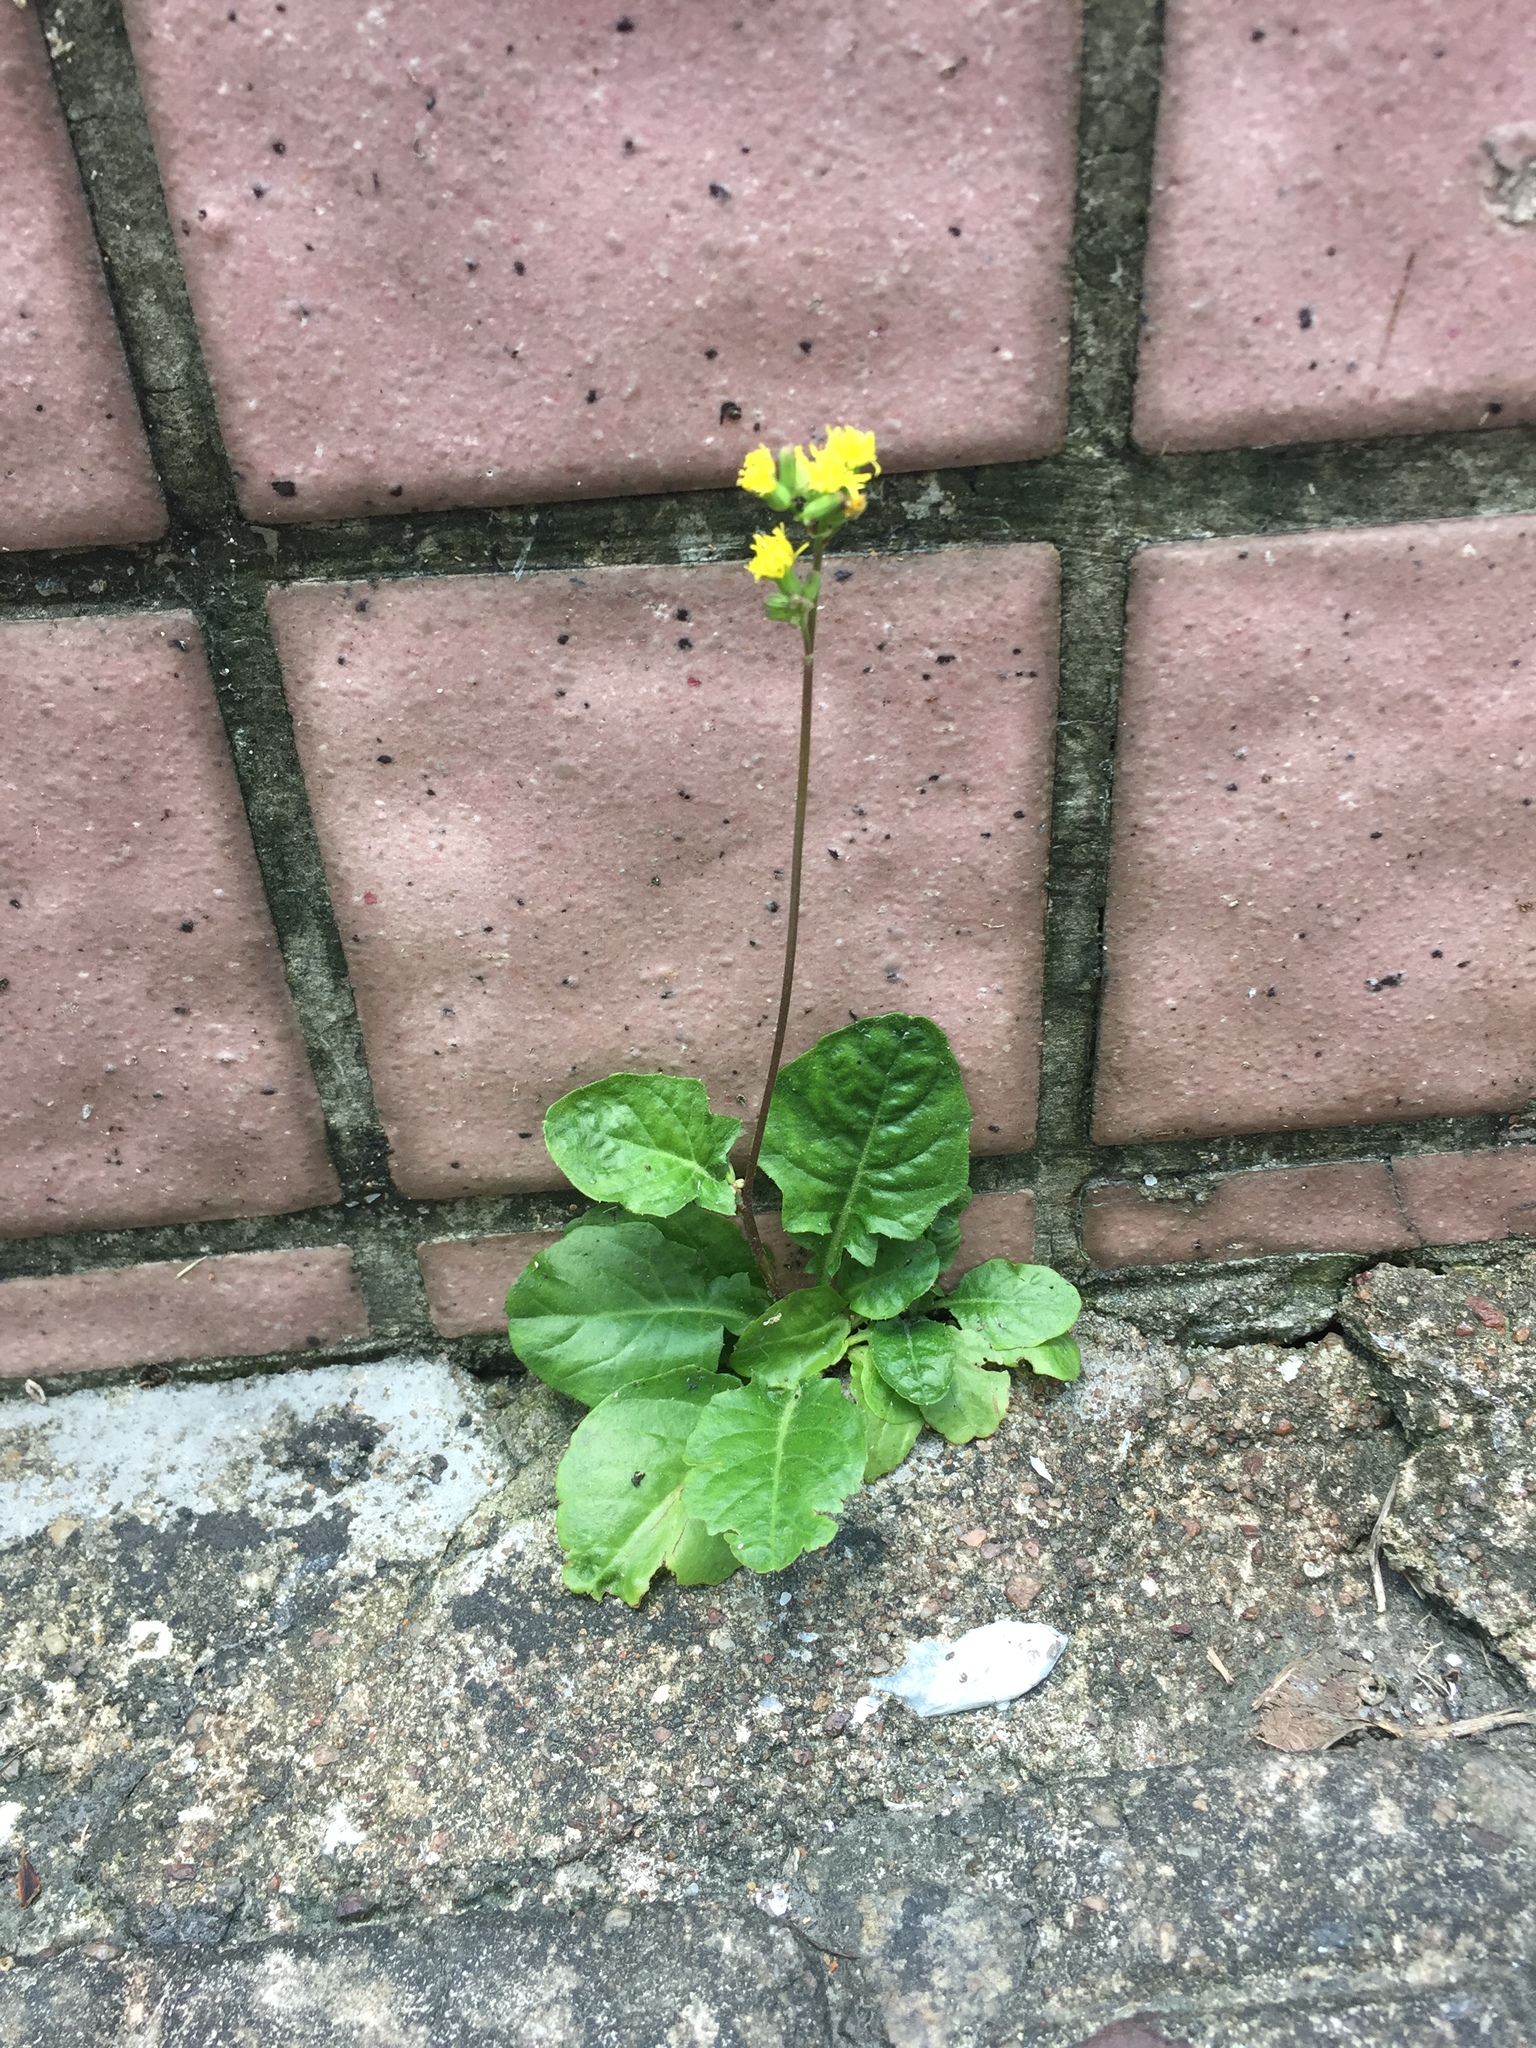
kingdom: Plantae
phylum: Tracheophyta
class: Magnoliopsida
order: Asterales
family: Asteraceae
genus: Youngia
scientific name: Youngia japonica
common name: Oriental false hawksbeard
